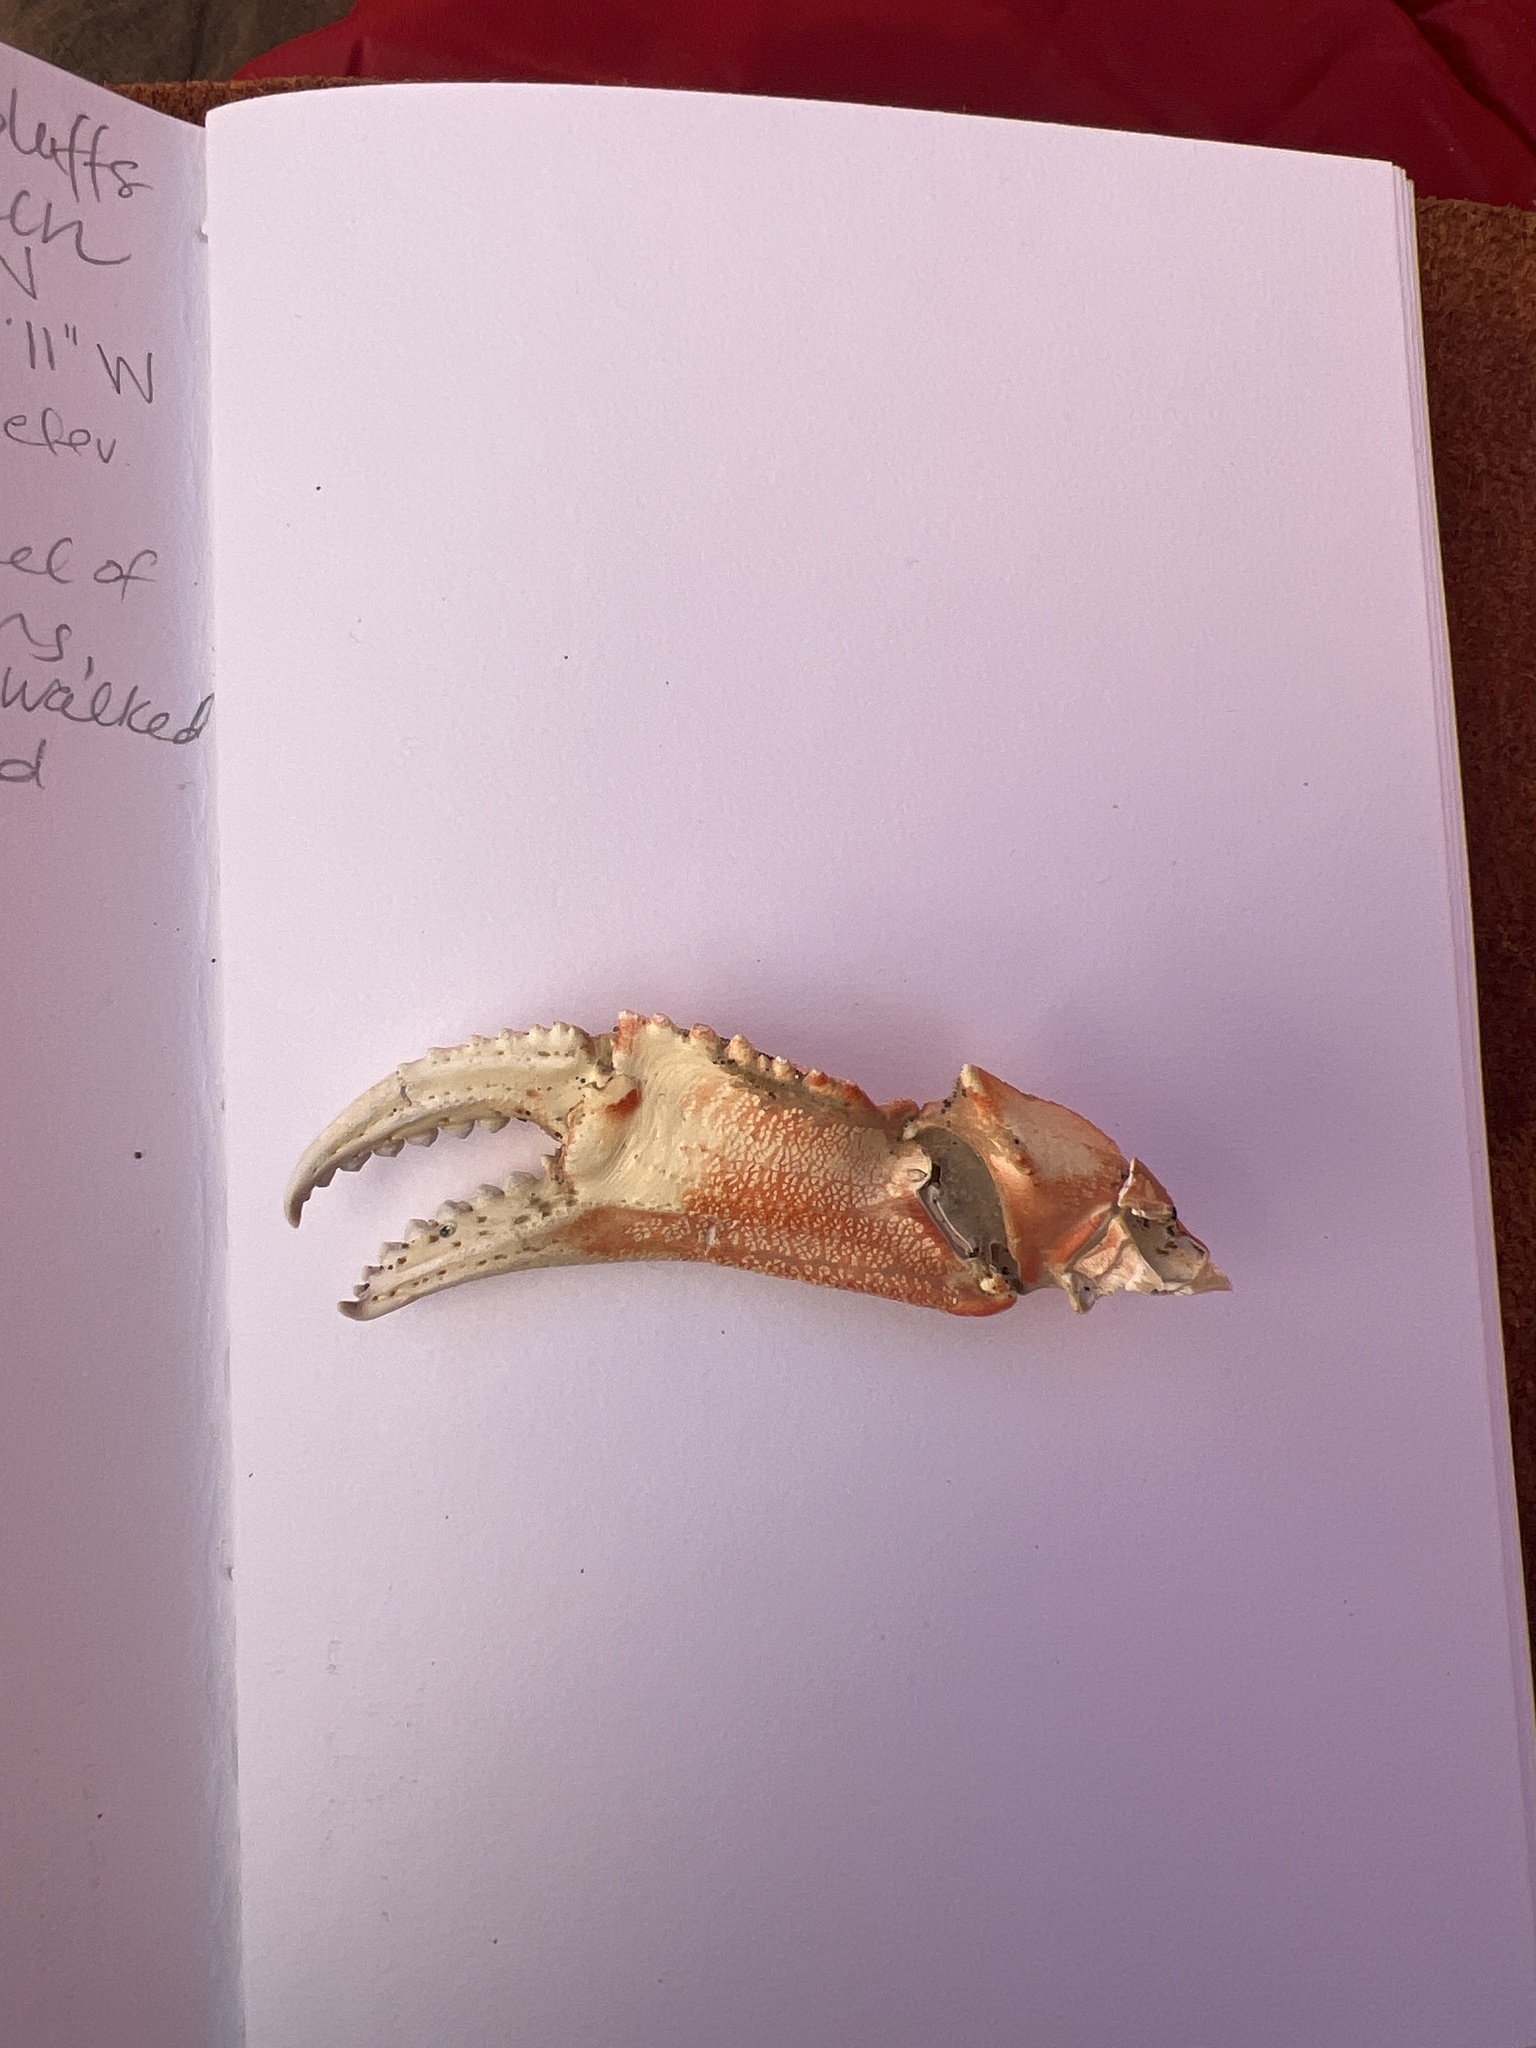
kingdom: Animalia
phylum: Arthropoda
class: Malacostraca
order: Decapoda
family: Cancridae
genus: Metacarcinus
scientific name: Metacarcinus magister
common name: Californian crab
